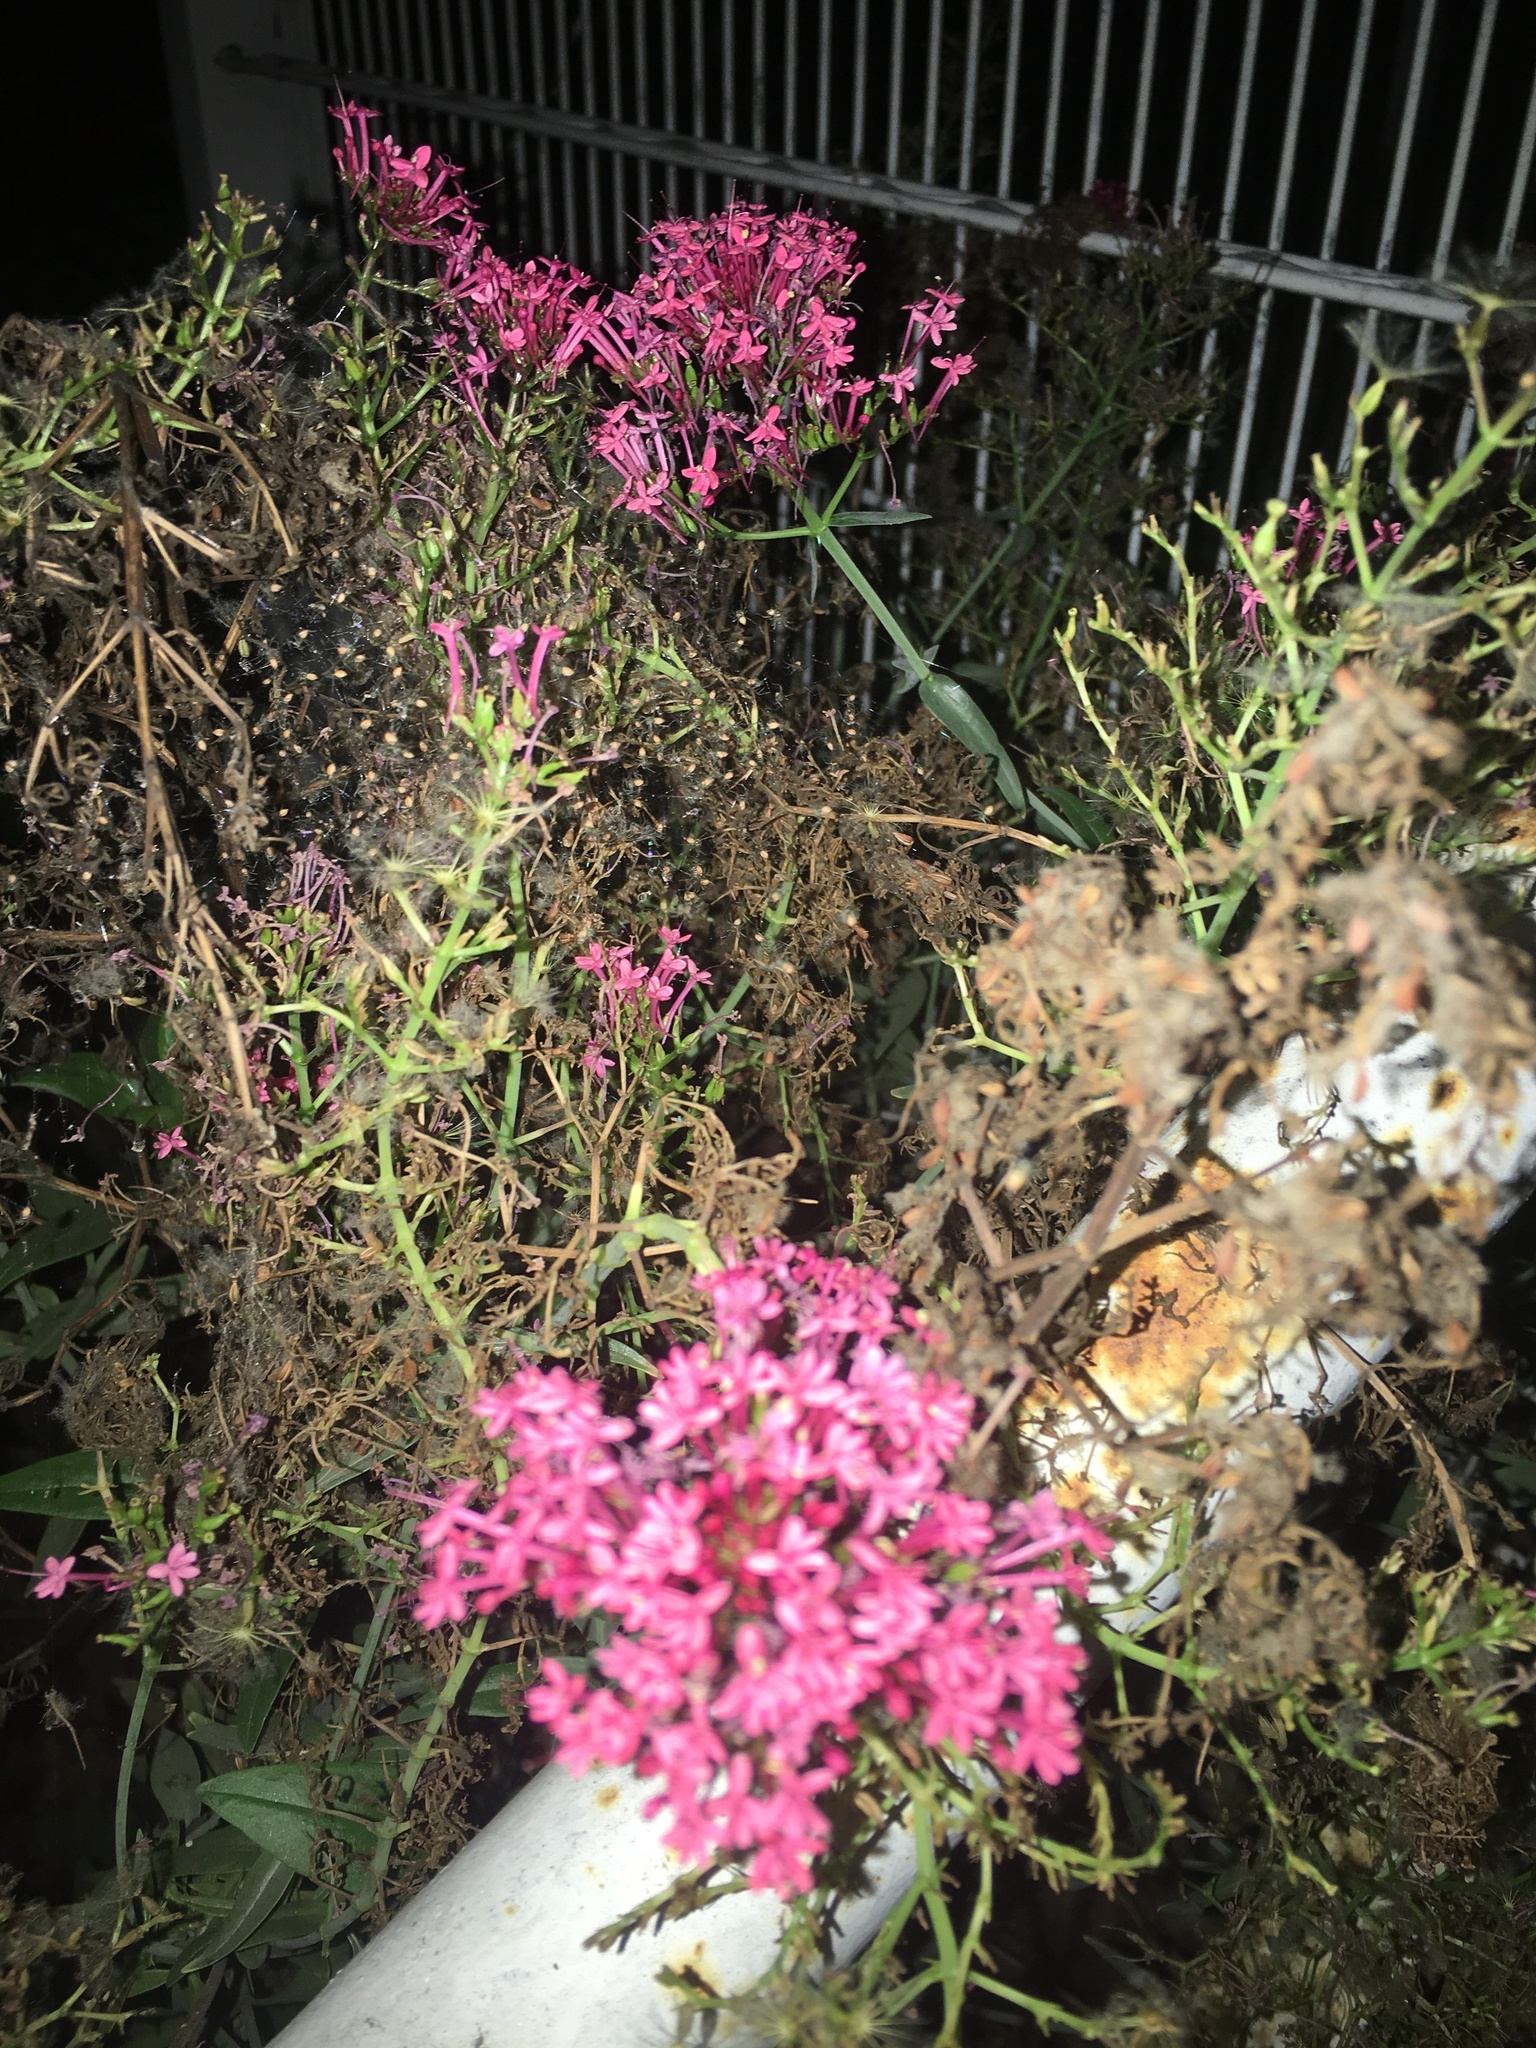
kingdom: Plantae
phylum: Tracheophyta
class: Magnoliopsida
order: Dipsacales
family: Caprifoliaceae
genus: Centranthus
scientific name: Centranthus ruber
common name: Red valerian
